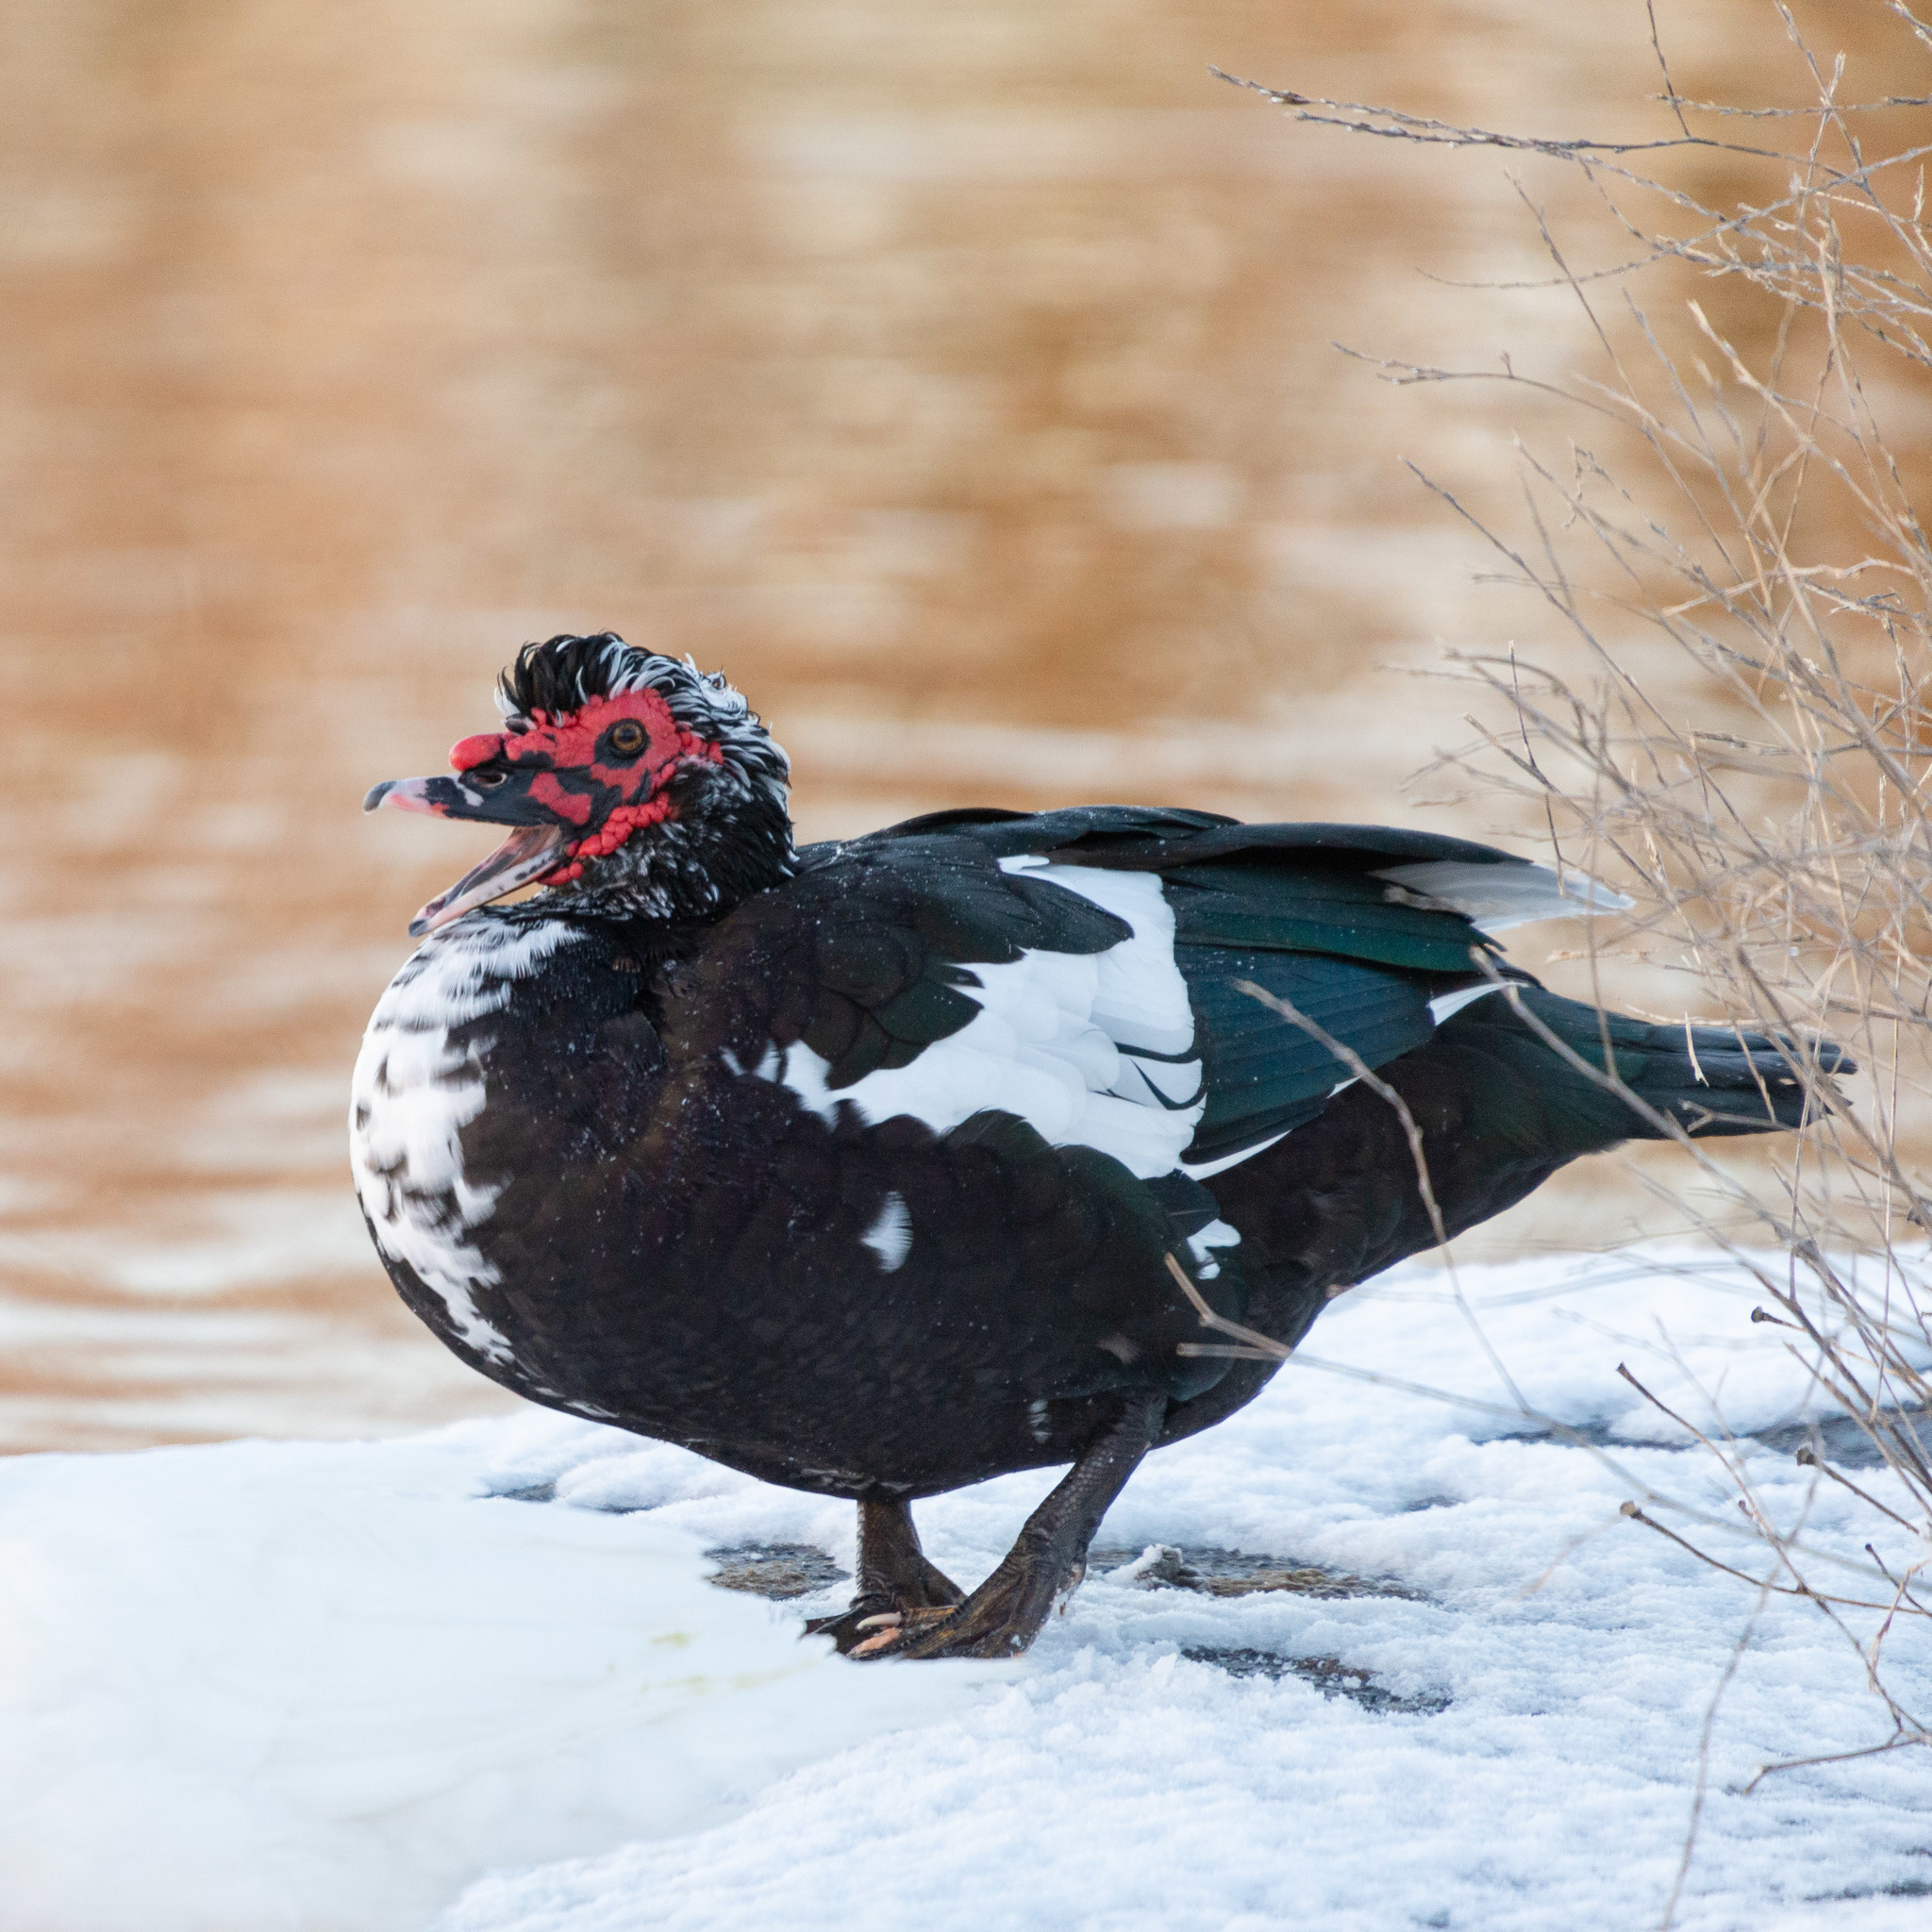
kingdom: Animalia
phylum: Chordata
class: Aves
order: Anseriformes
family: Anatidae
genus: Cairina
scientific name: Cairina moschata
